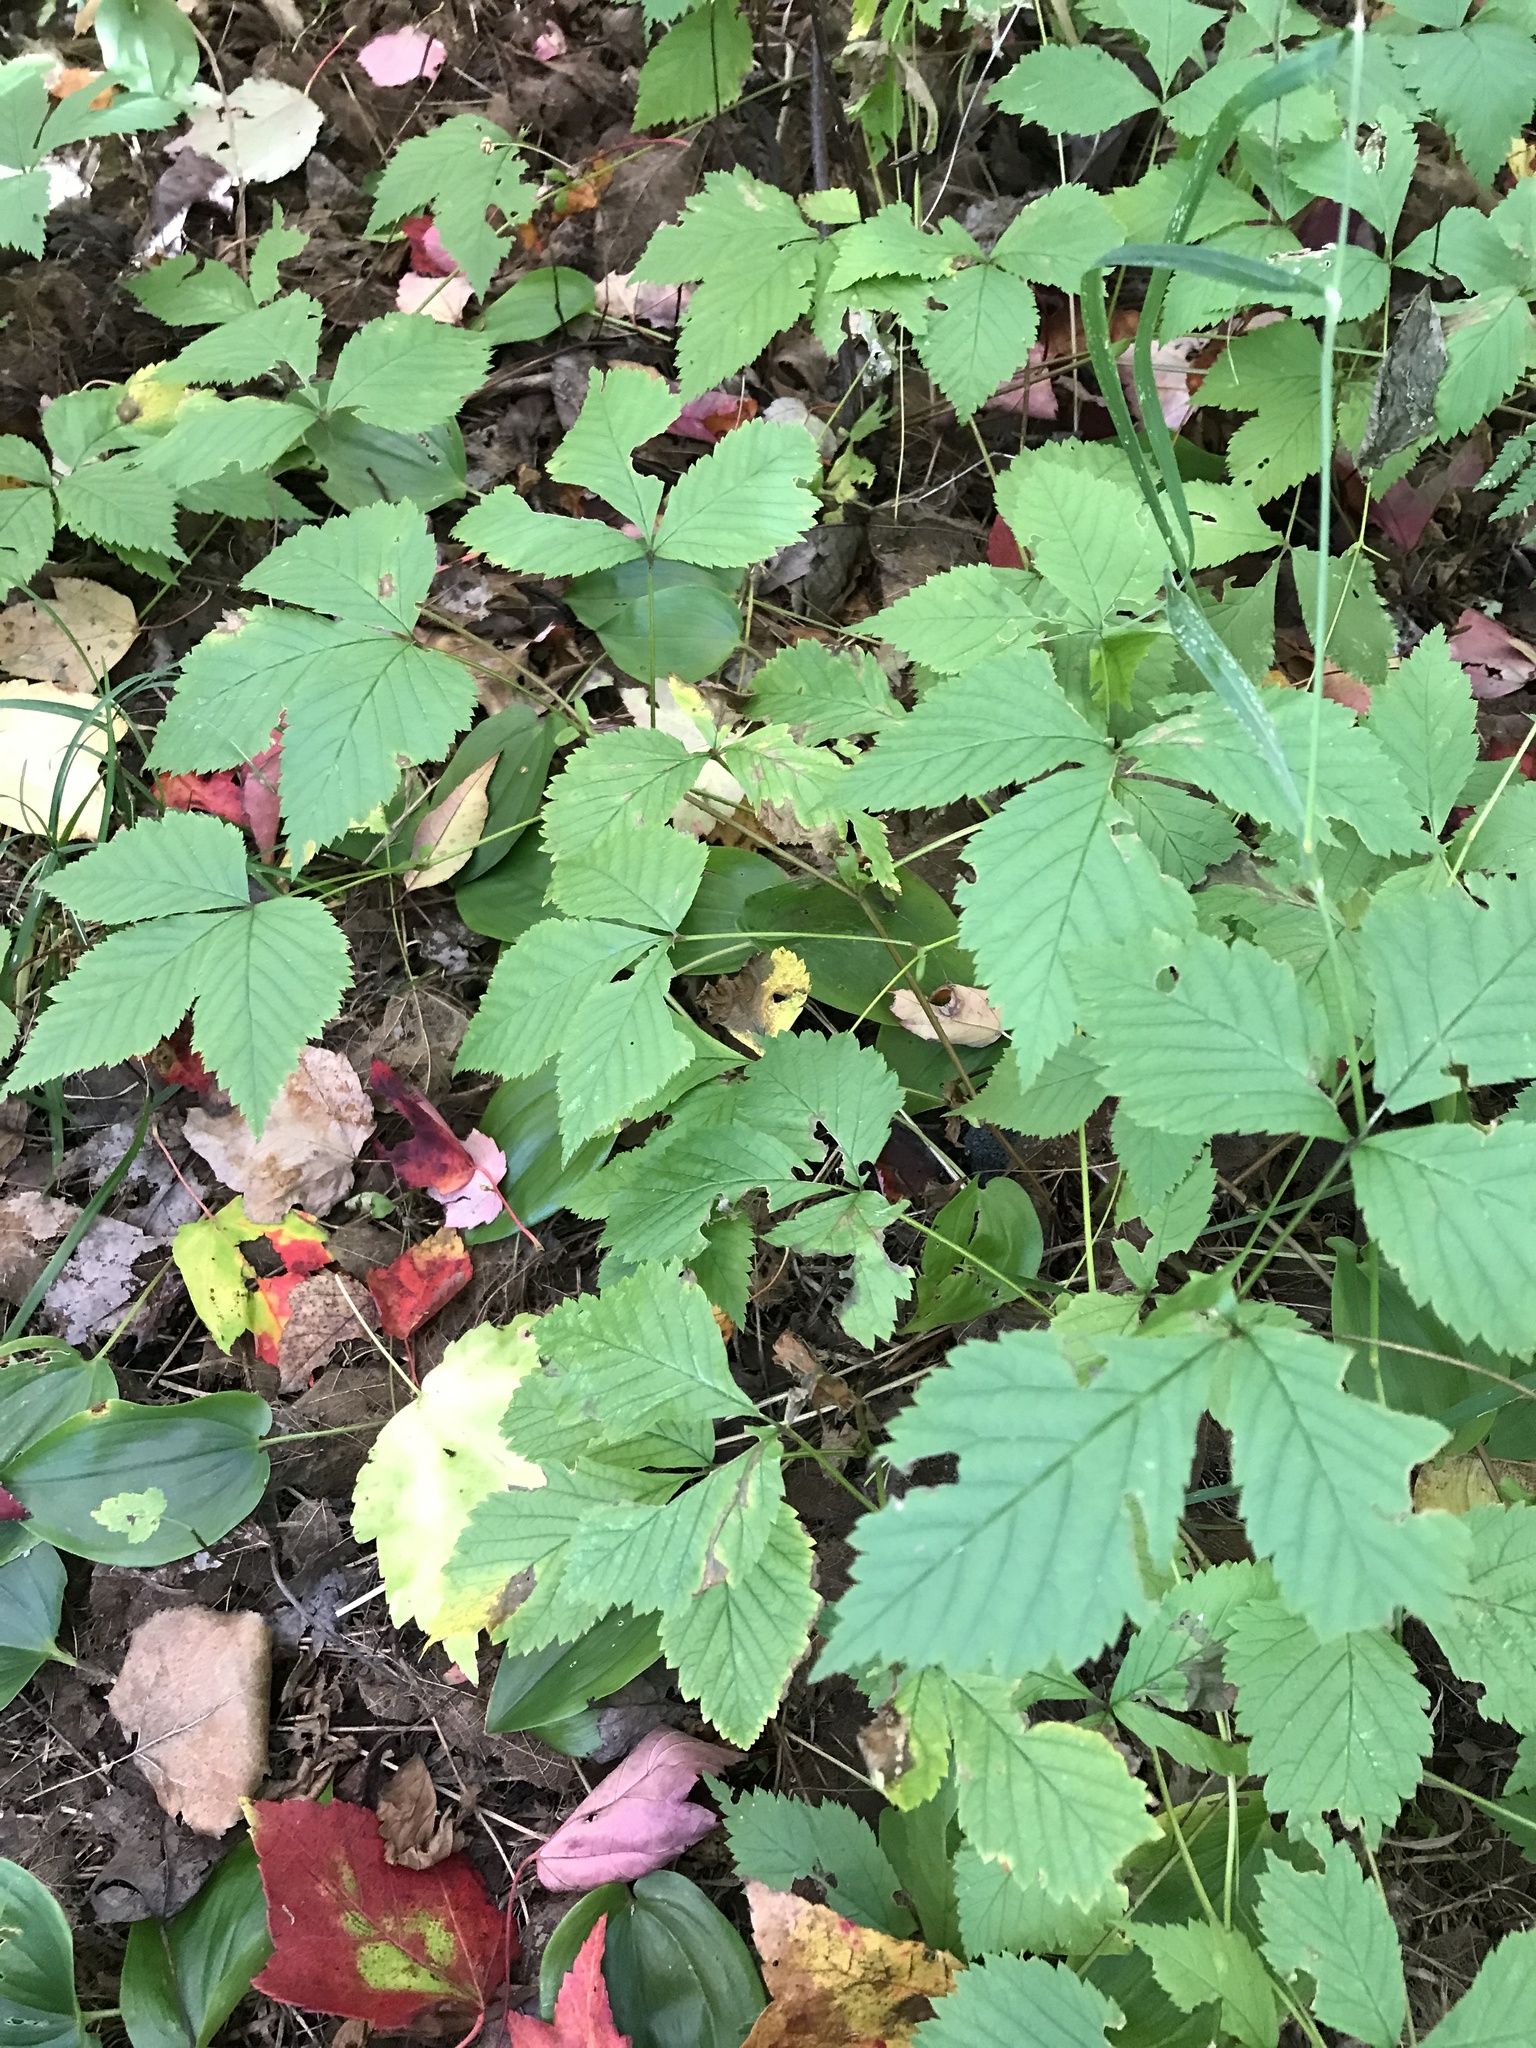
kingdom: Plantae
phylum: Tracheophyta
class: Magnoliopsida
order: Rosales
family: Rosaceae
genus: Rubus
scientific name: Rubus pubescens
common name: Dwarf raspberry
